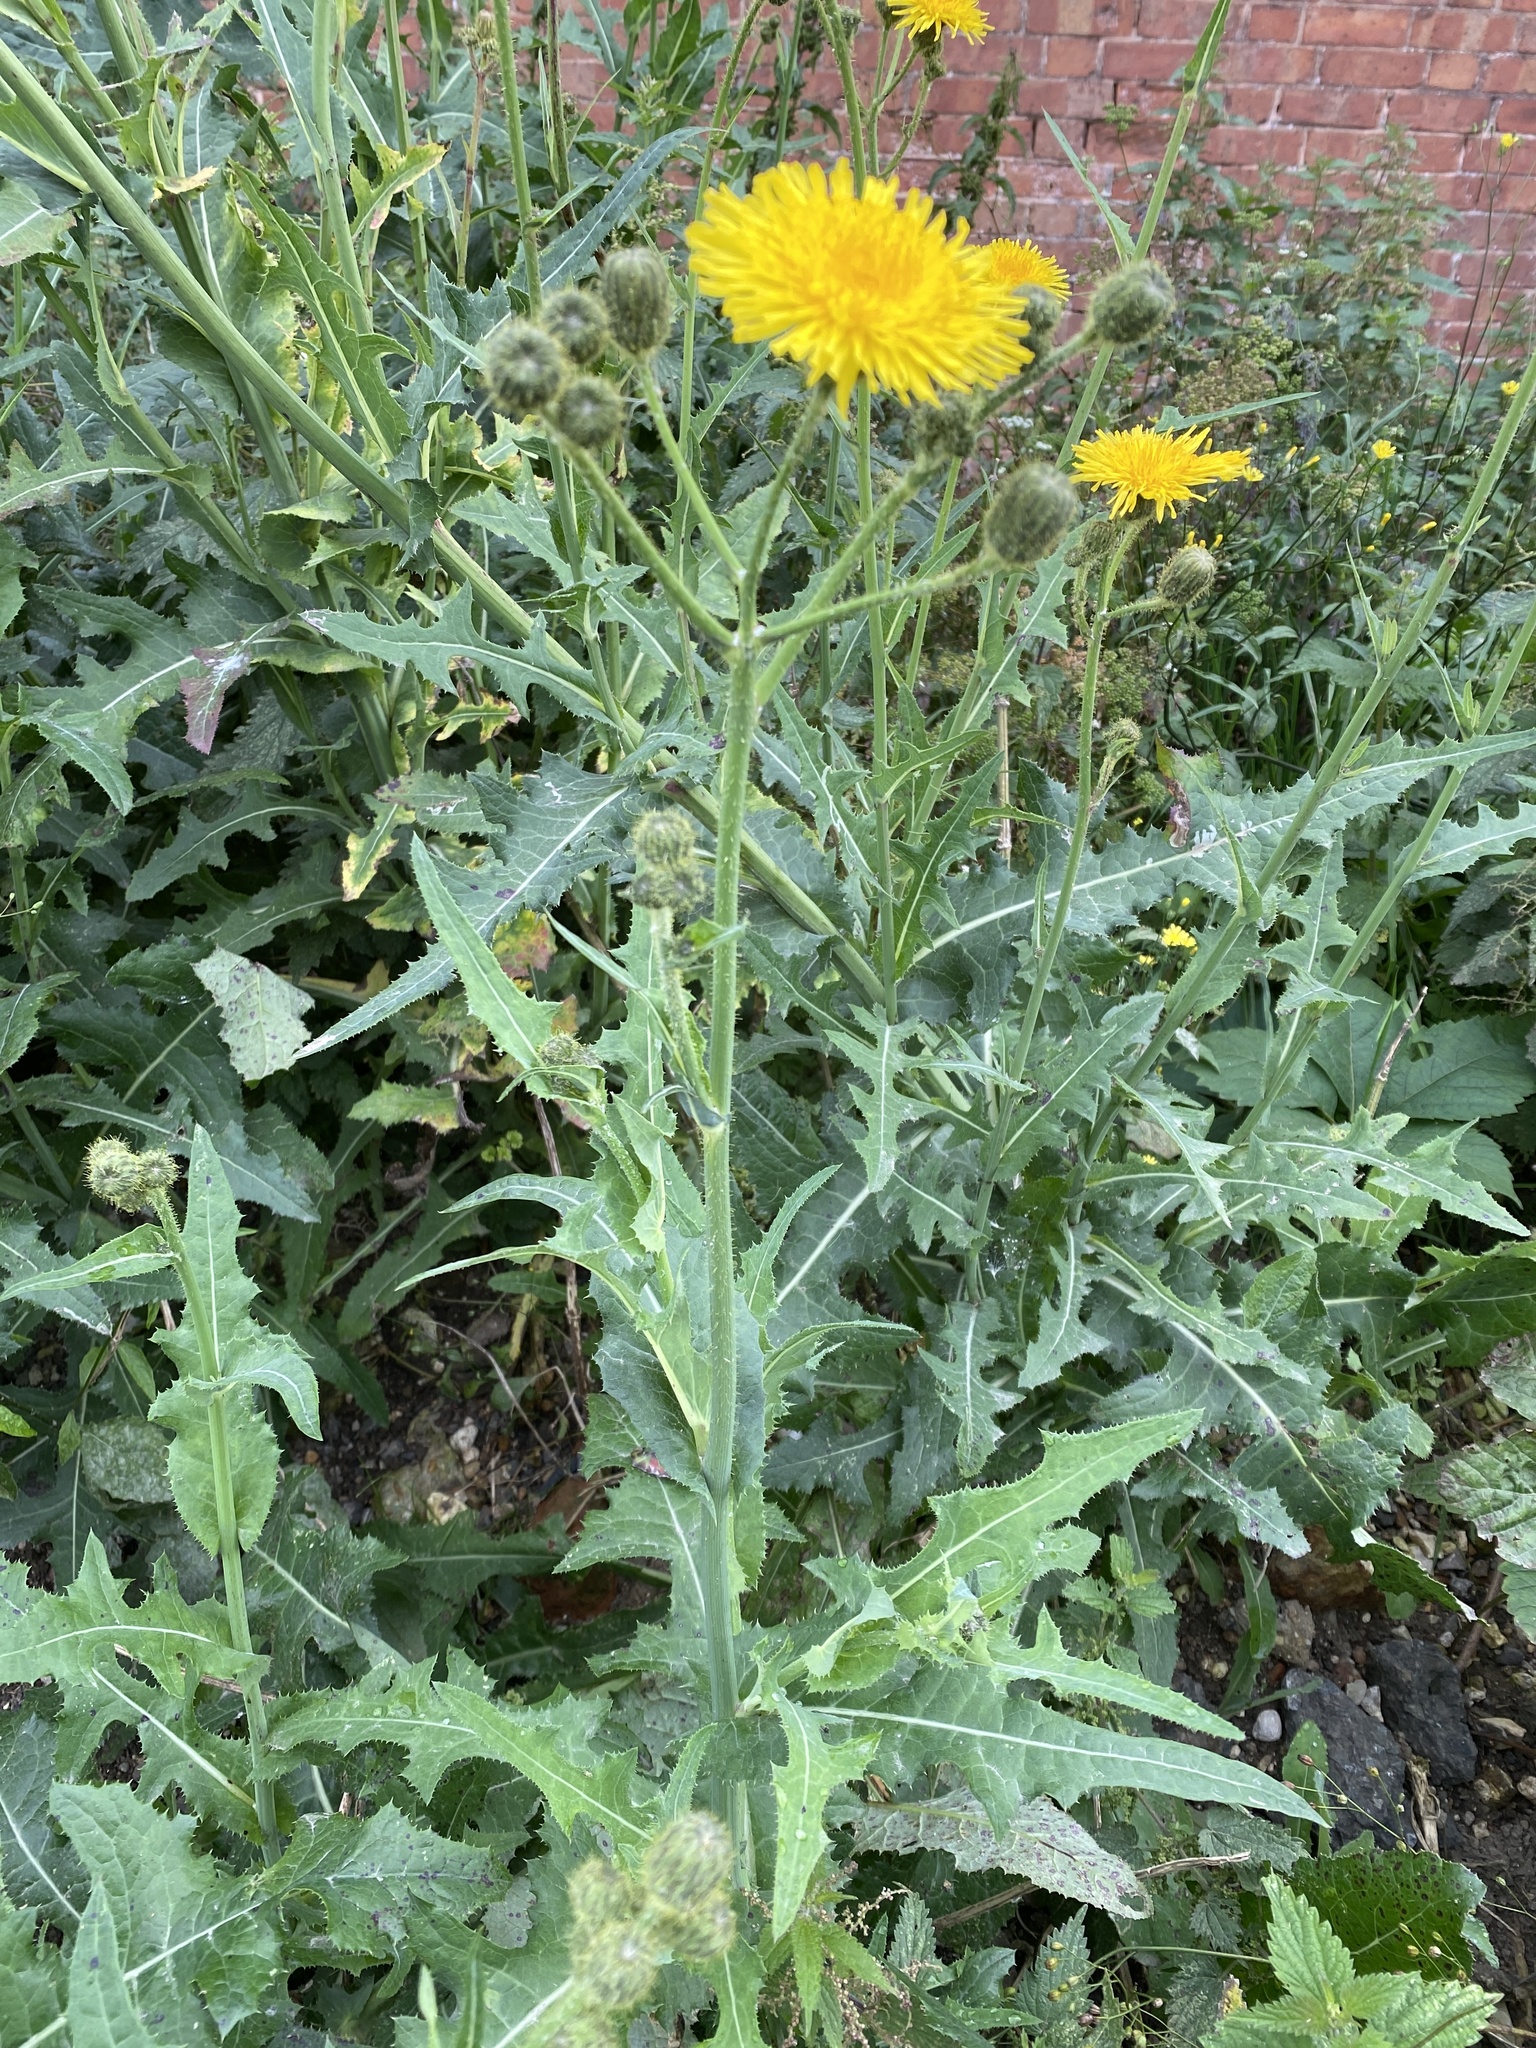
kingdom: Plantae
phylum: Tracheophyta
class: Magnoliopsida
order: Asterales
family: Asteraceae
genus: Sonchus
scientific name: Sonchus arvensis
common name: Perennial sow-thistle
